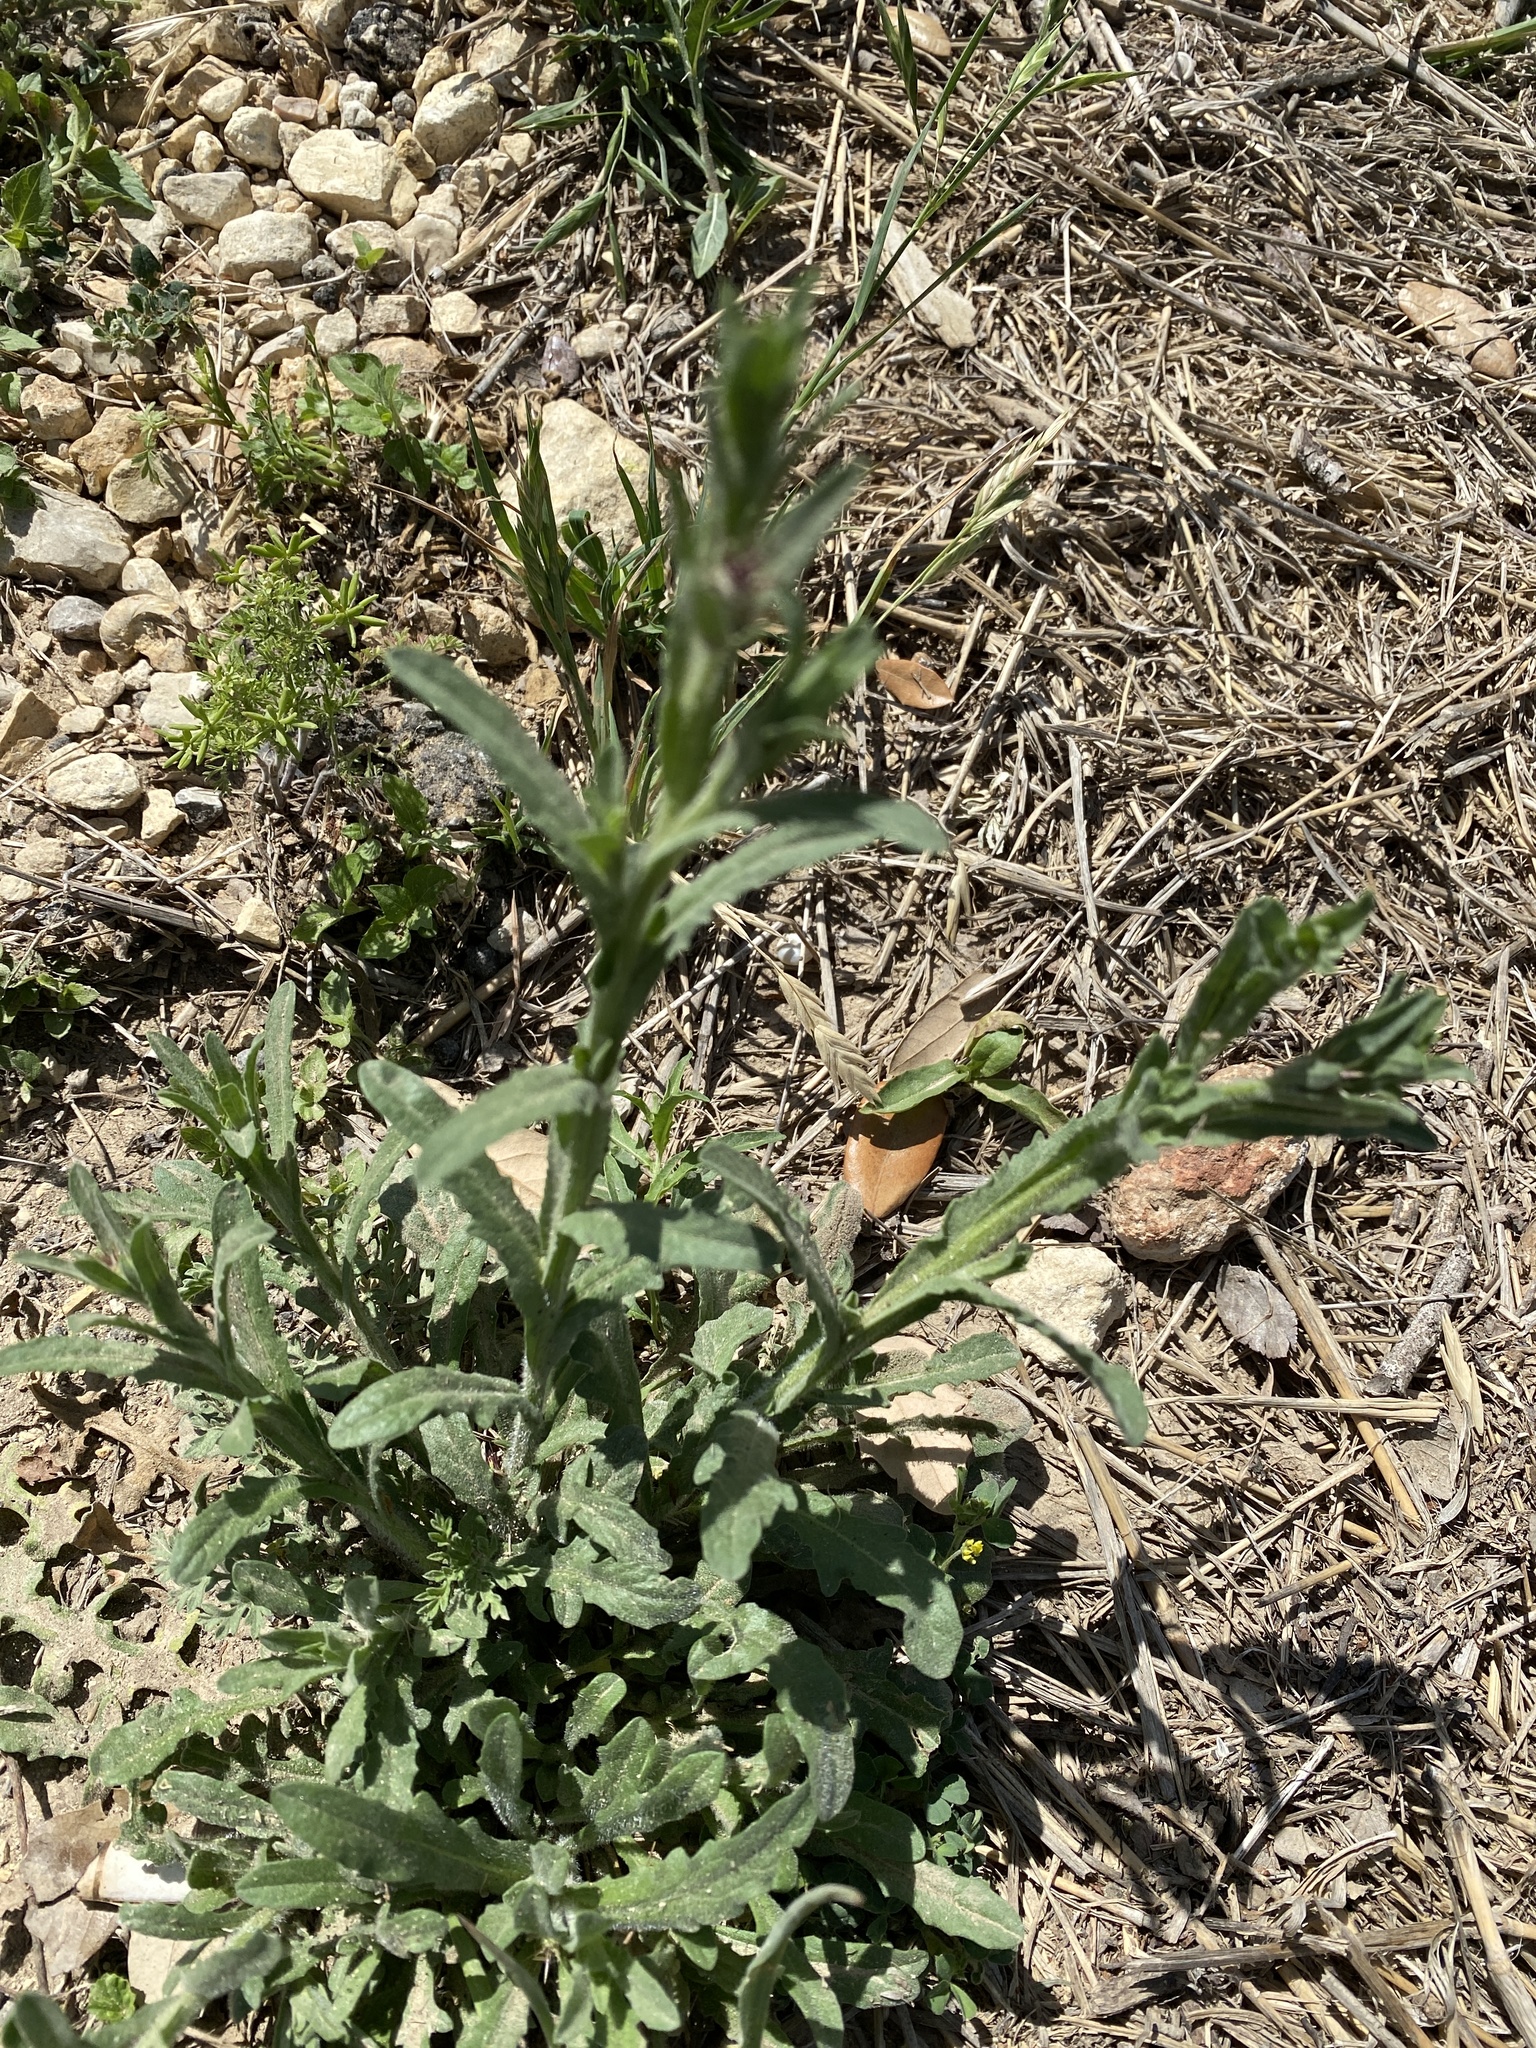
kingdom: Plantae
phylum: Tracheophyta
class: Magnoliopsida
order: Asterales
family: Asteraceae
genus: Centaurea
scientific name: Centaurea melitensis
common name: Maltese star-thistle
